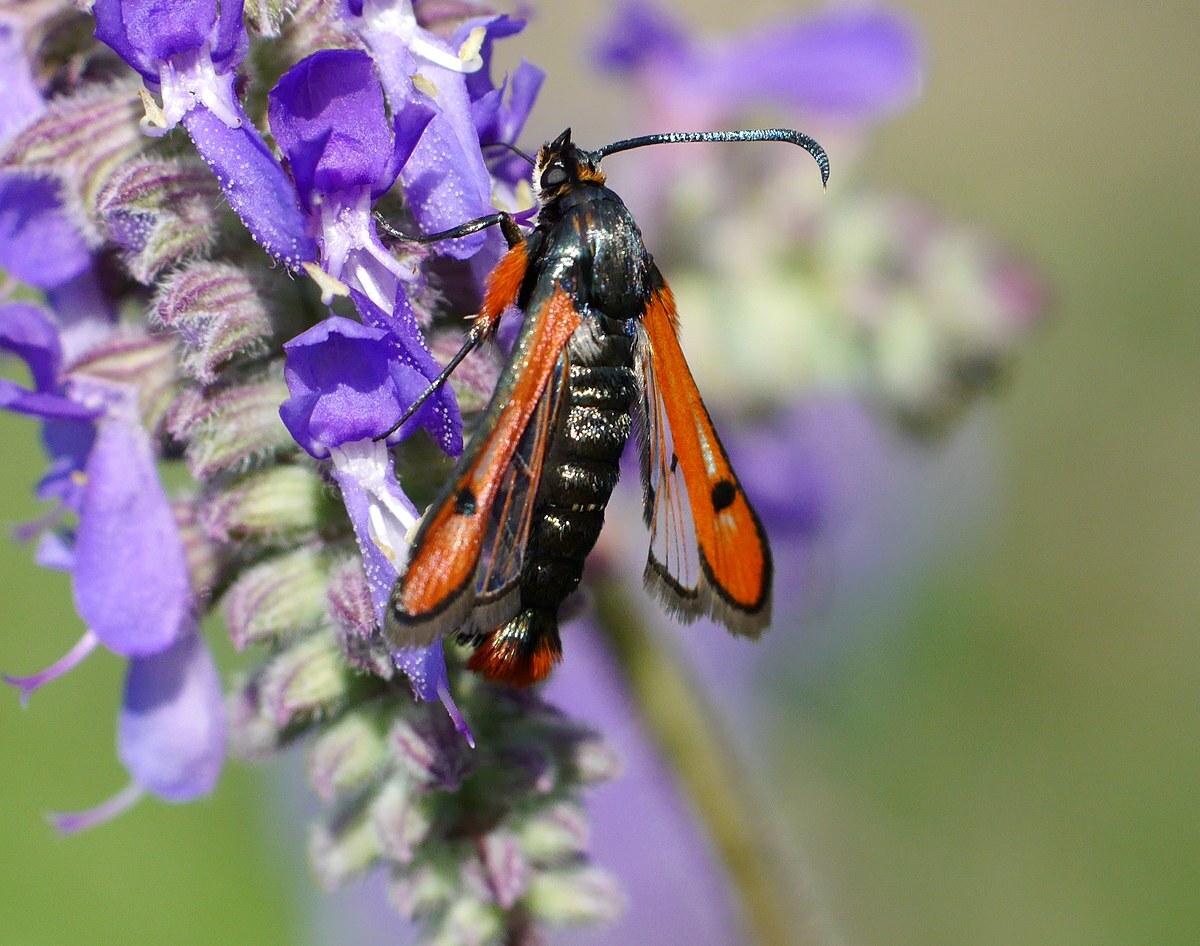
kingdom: Animalia
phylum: Arthropoda
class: Insecta
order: Lepidoptera
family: Sesiidae
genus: Chamaesphecia
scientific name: Chamaesphecia schmidtiiformis
